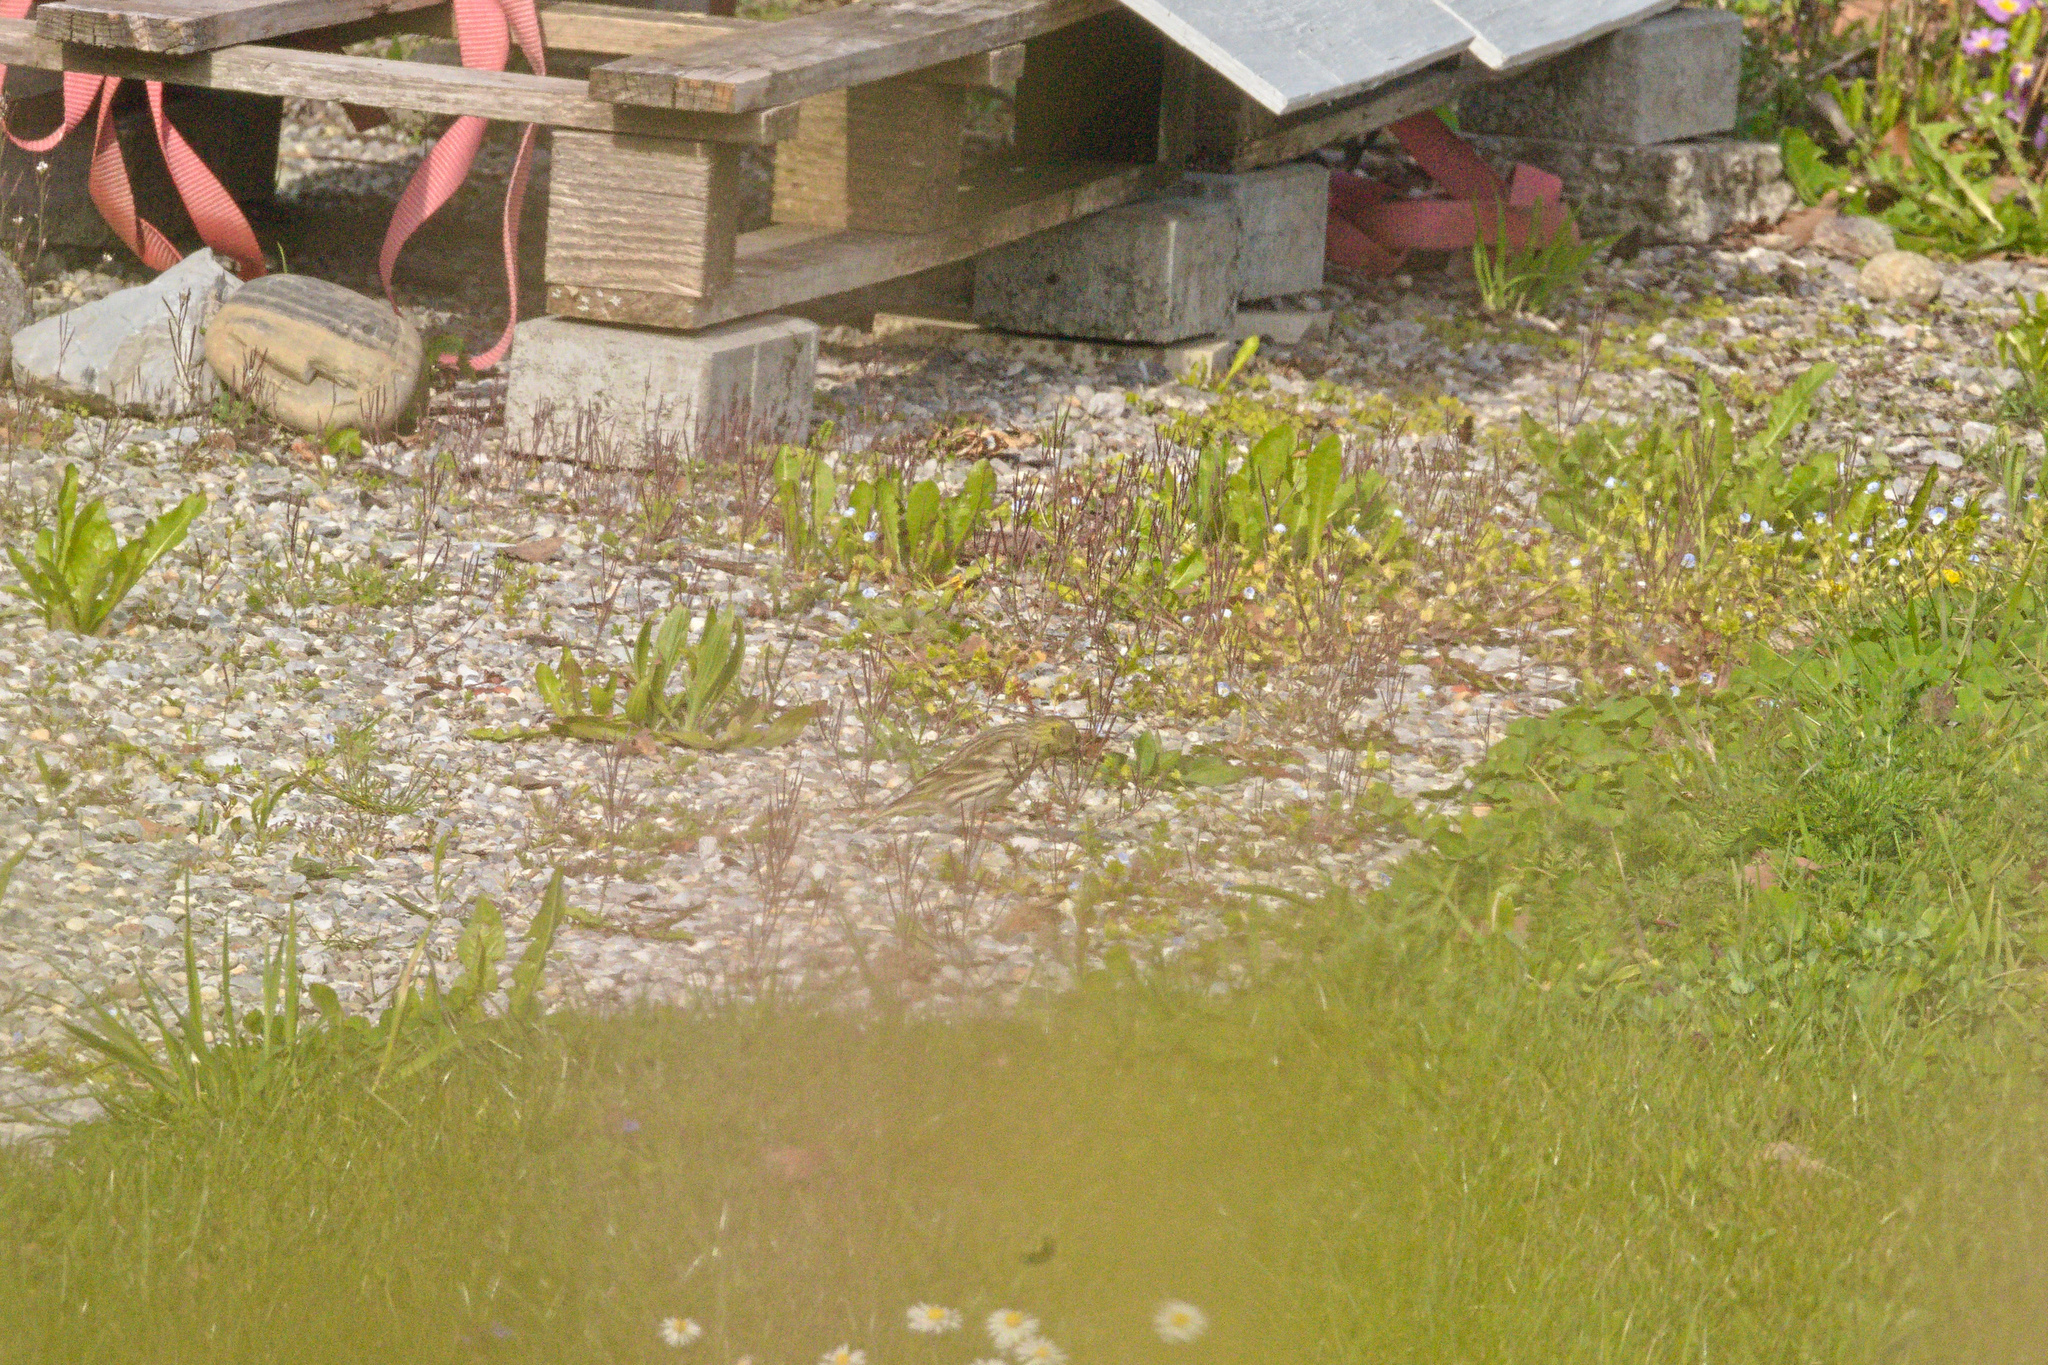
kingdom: Animalia
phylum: Chordata
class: Aves
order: Passeriformes
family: Fringillidae
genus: Serinus
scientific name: Serinus serinus
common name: European serin
